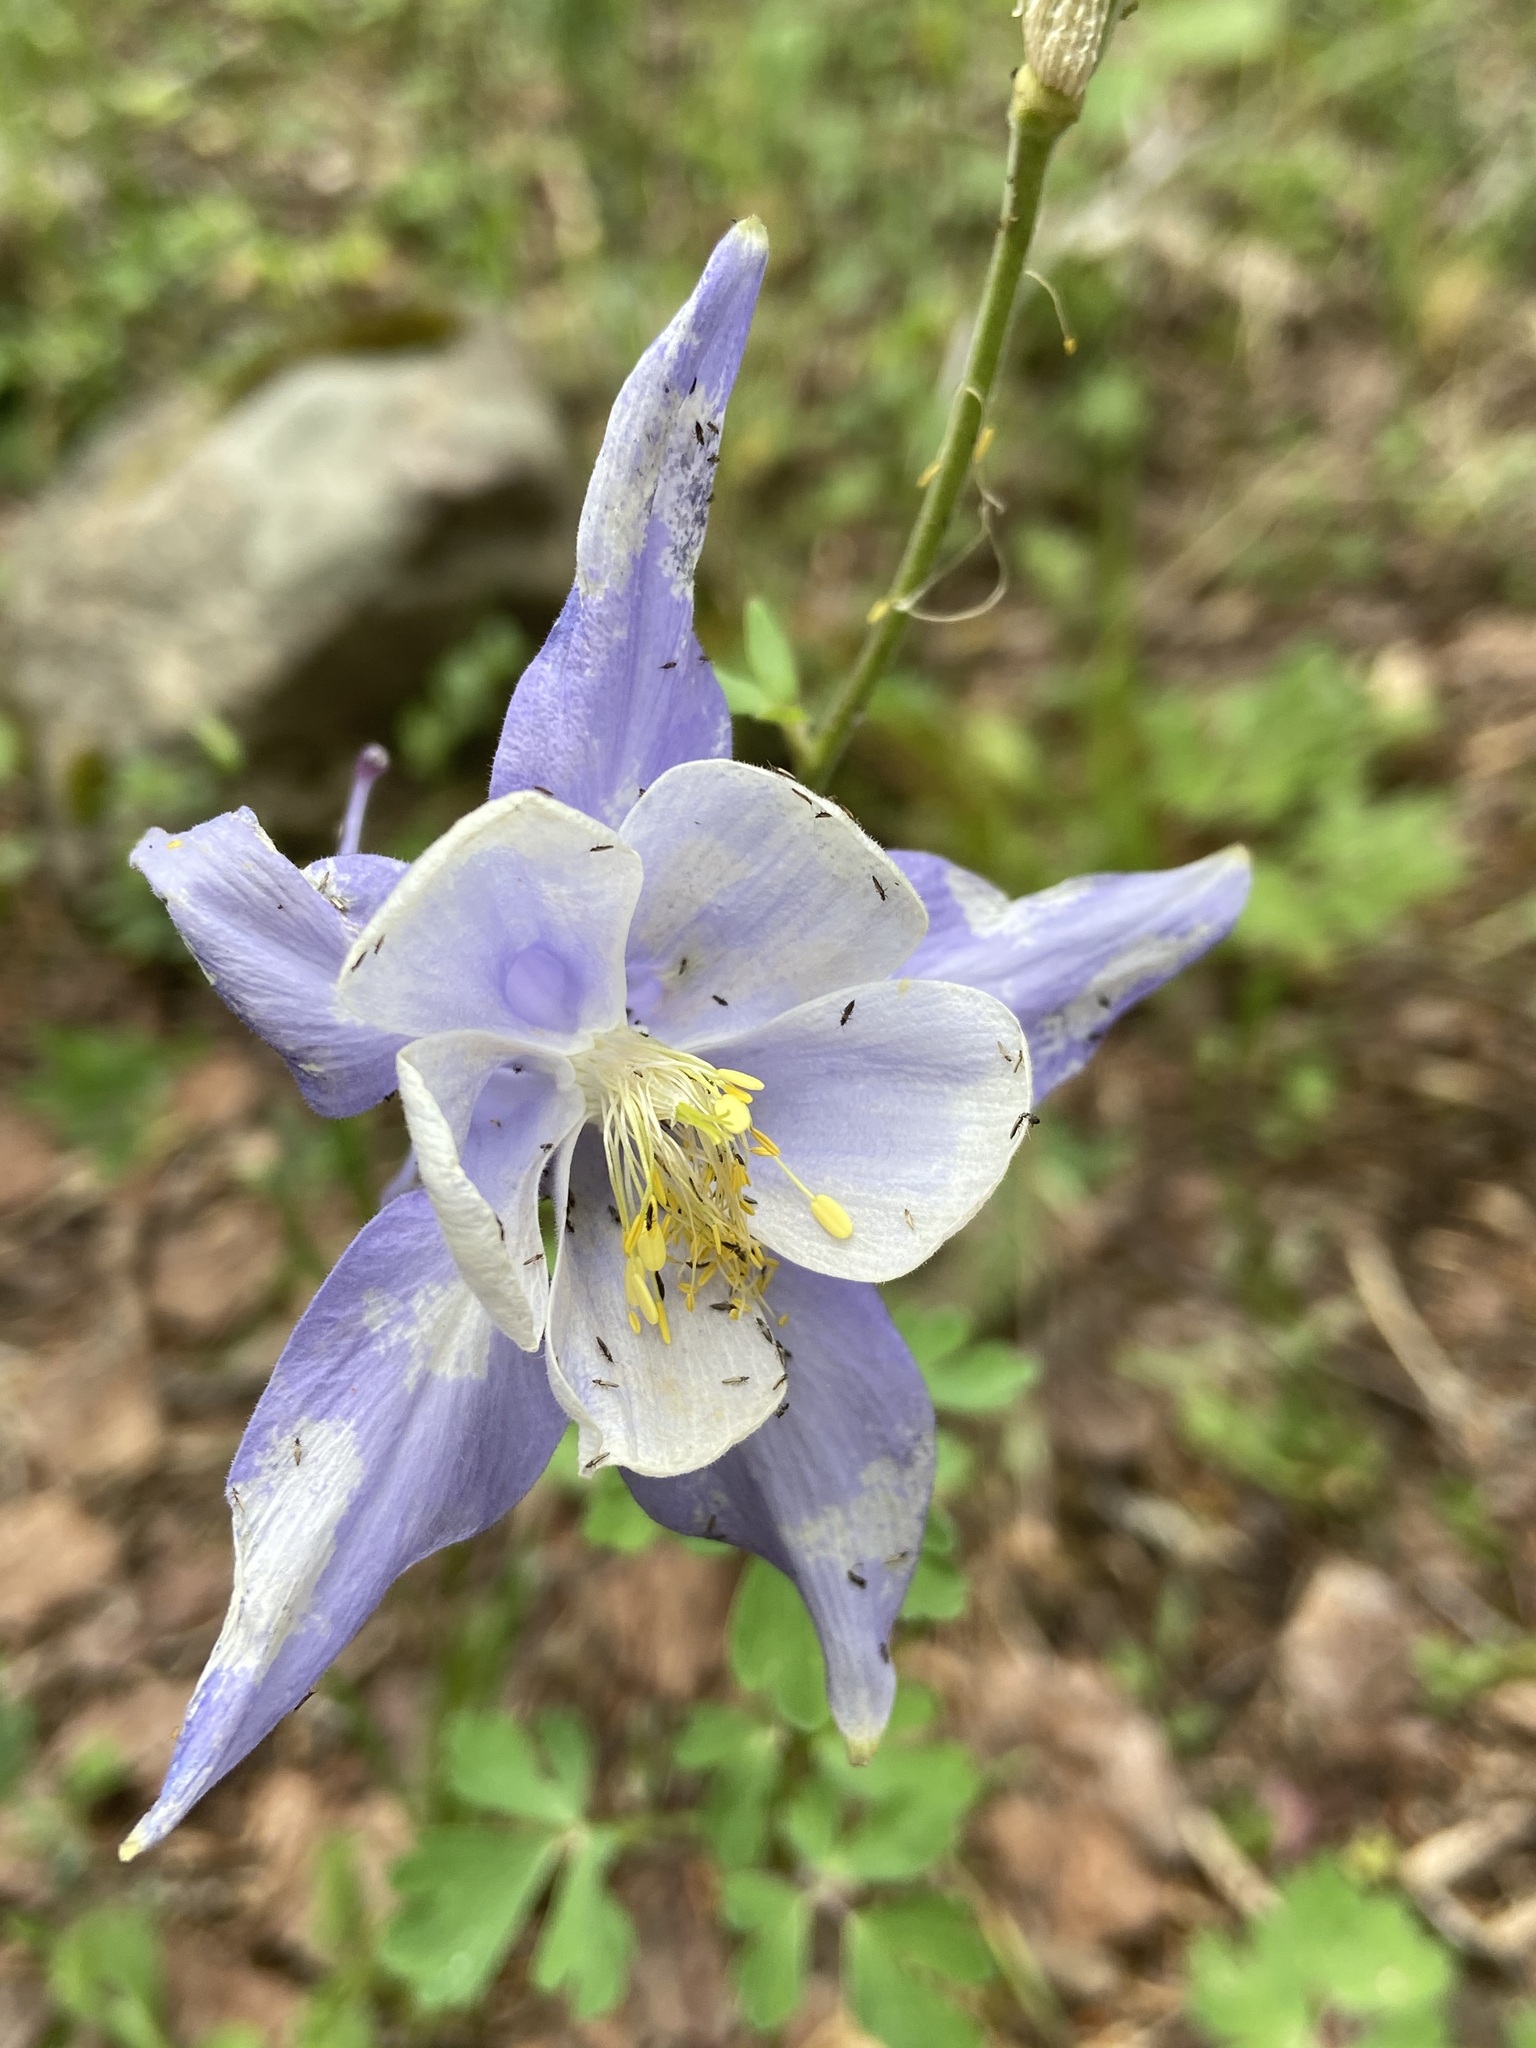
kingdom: Plantae
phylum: Tracheophyta
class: Magnoliopsida
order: Ranunculales
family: Ranunculaceae
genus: Aquilegia
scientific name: Aquilegia coerulea
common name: Rocky mountain columbine
